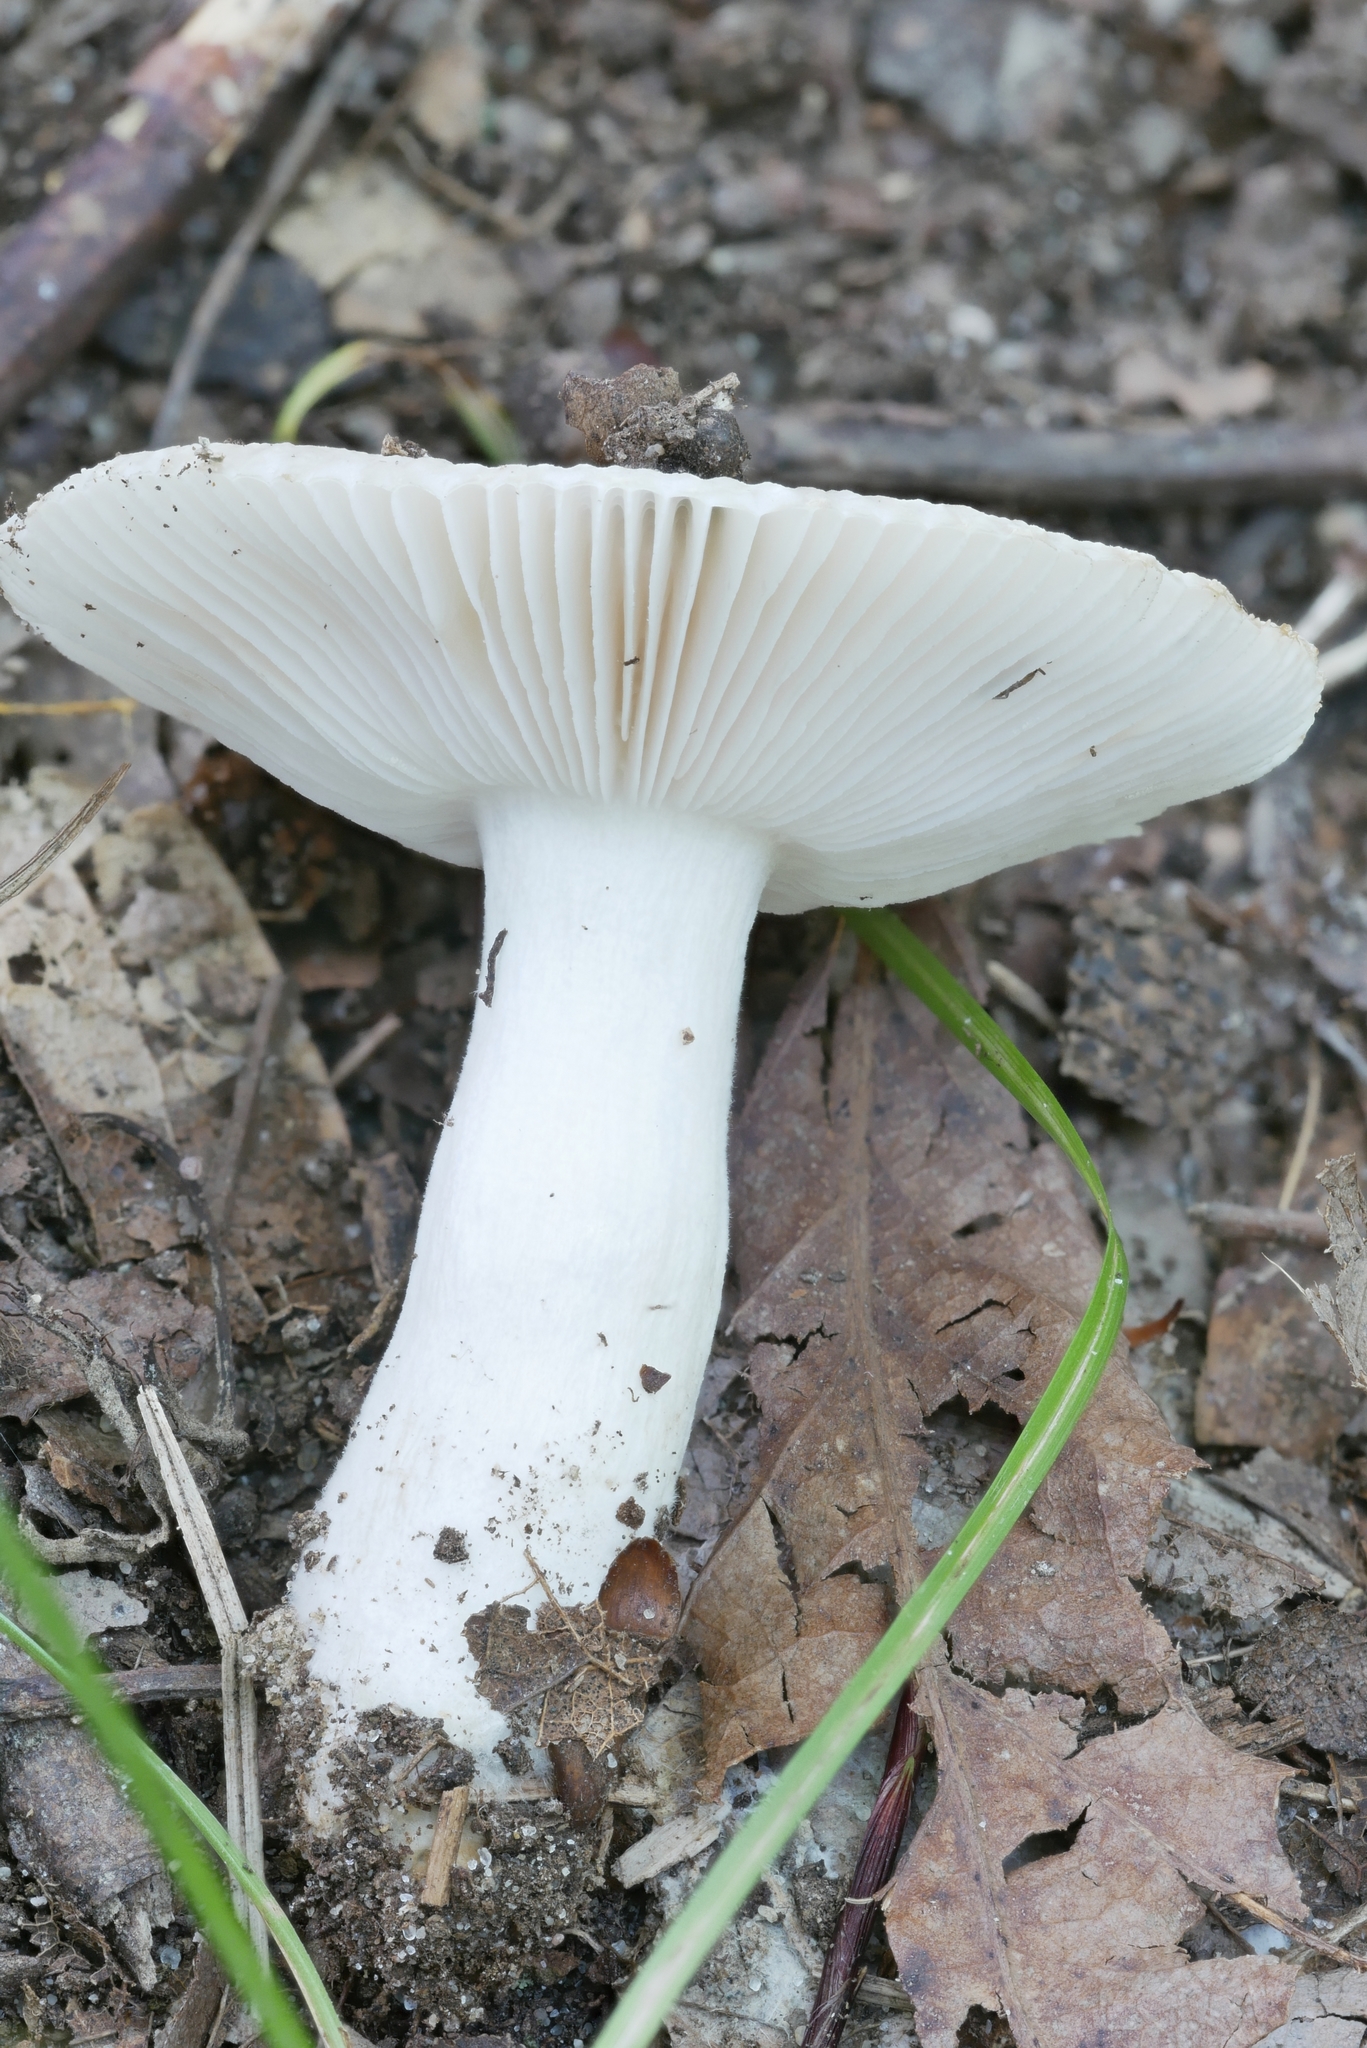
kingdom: Fungi
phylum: Basidiomycota
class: Agaricomycetes
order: Russulales
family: Russulaceae
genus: Russula
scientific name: Russula pectinatoides
